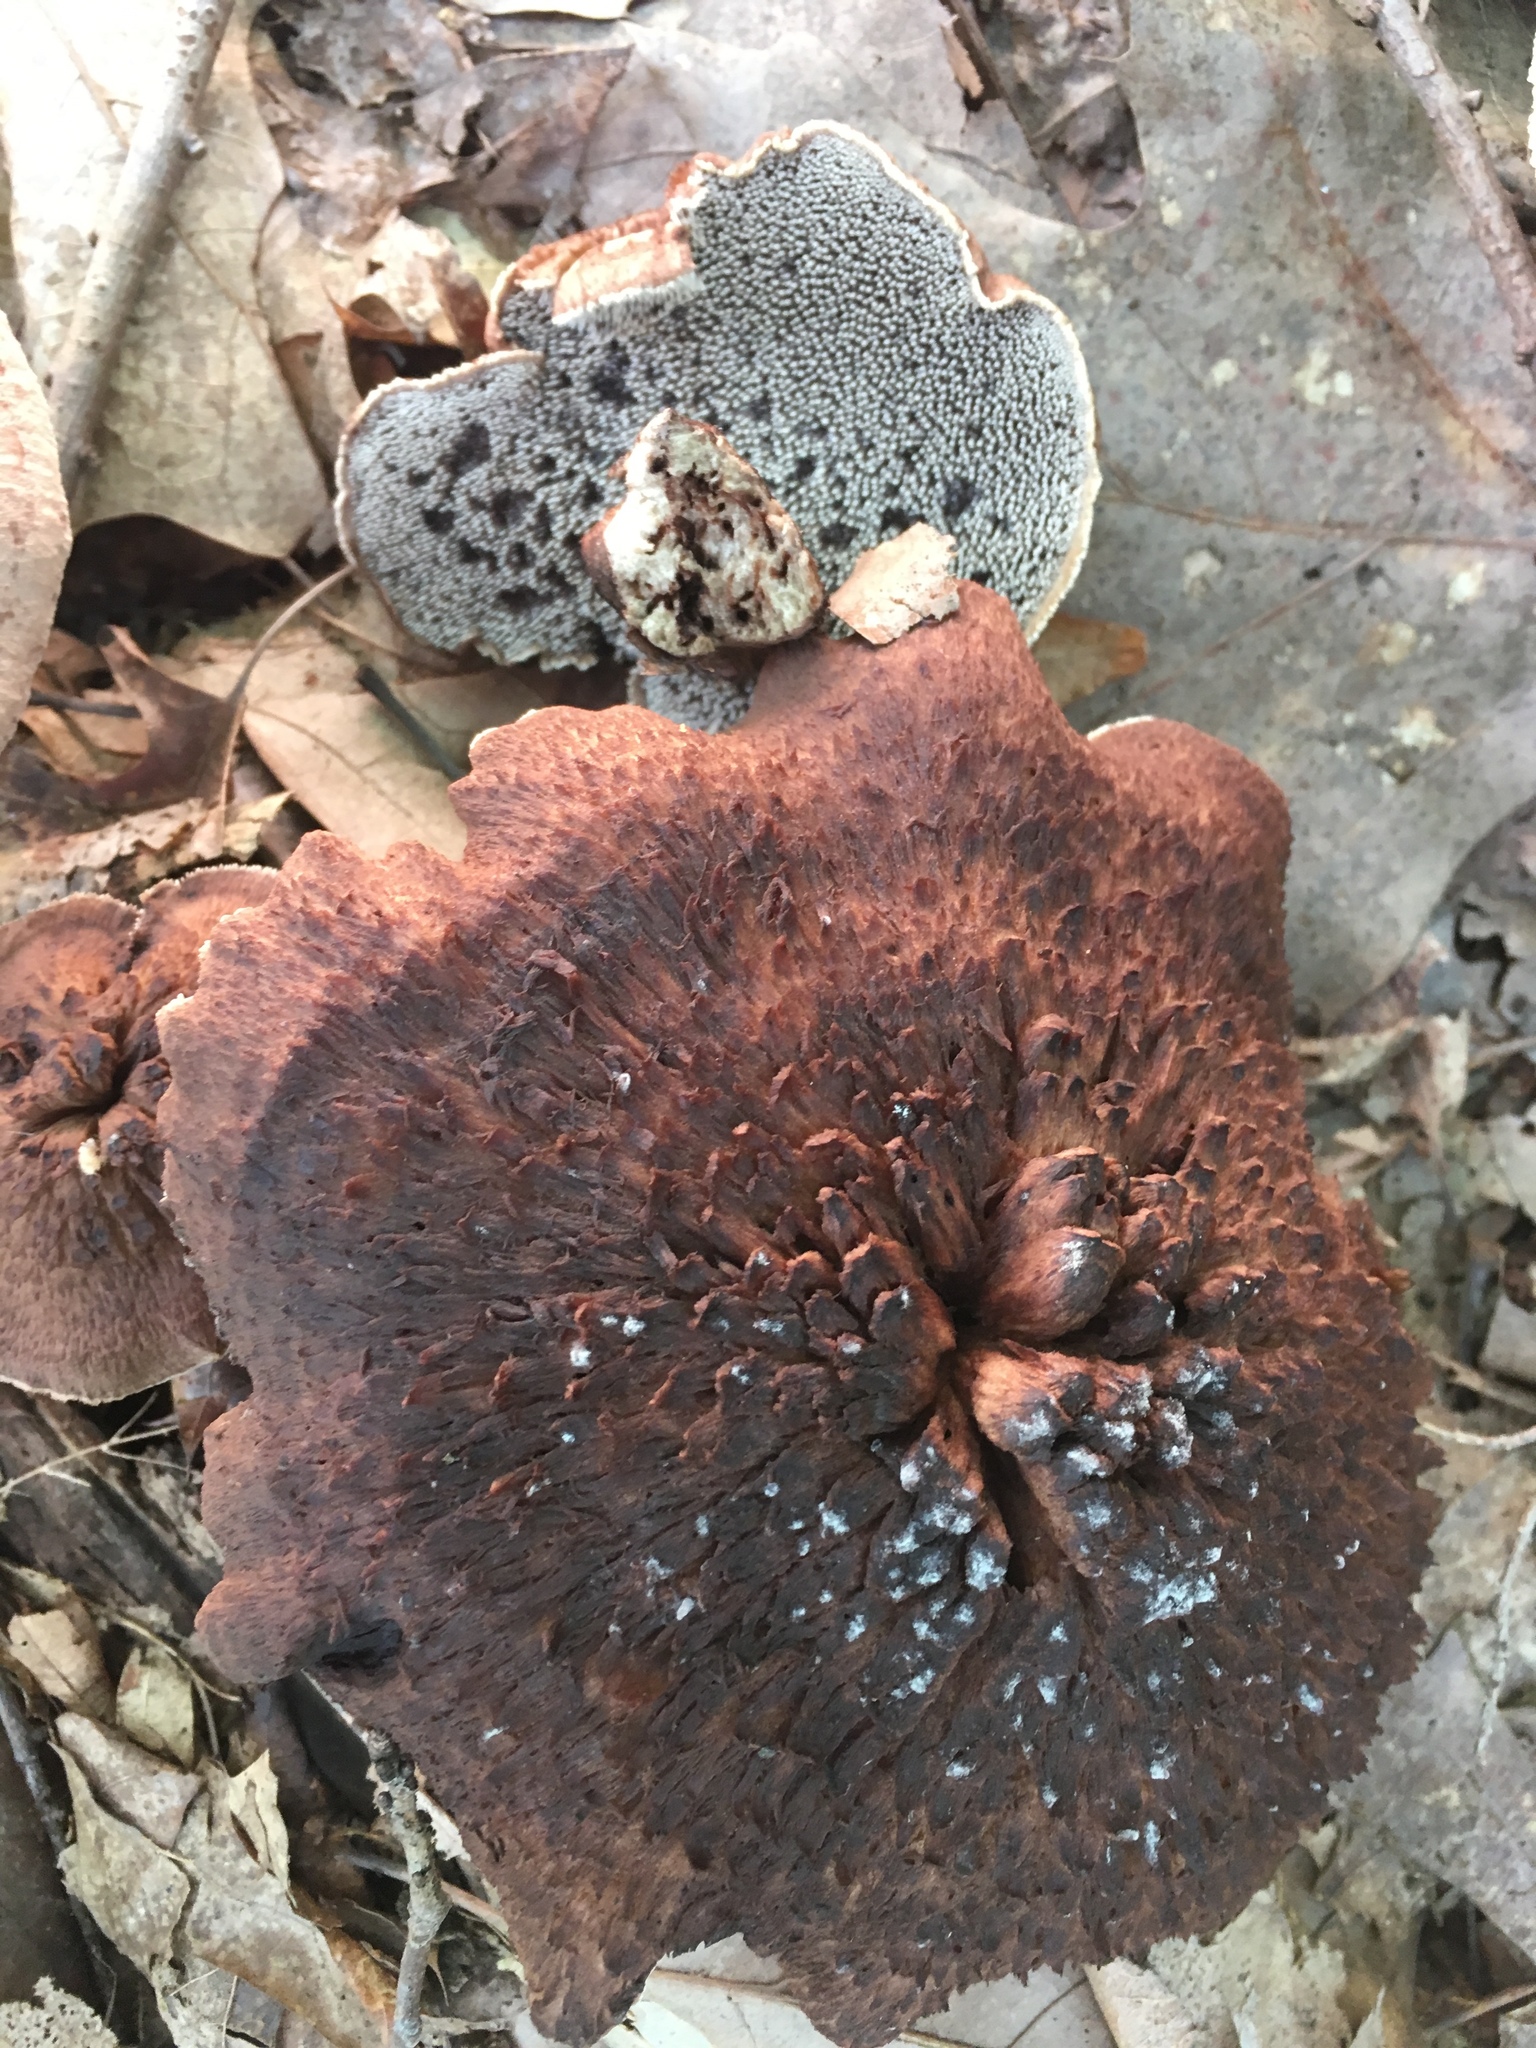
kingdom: Fungi
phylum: Basidiomycota
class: Agaricomycetes
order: Thelephorales
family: Bankeraceae
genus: Sarcodon
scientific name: Sarcodon imbricatus
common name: Shingled hedgehog
